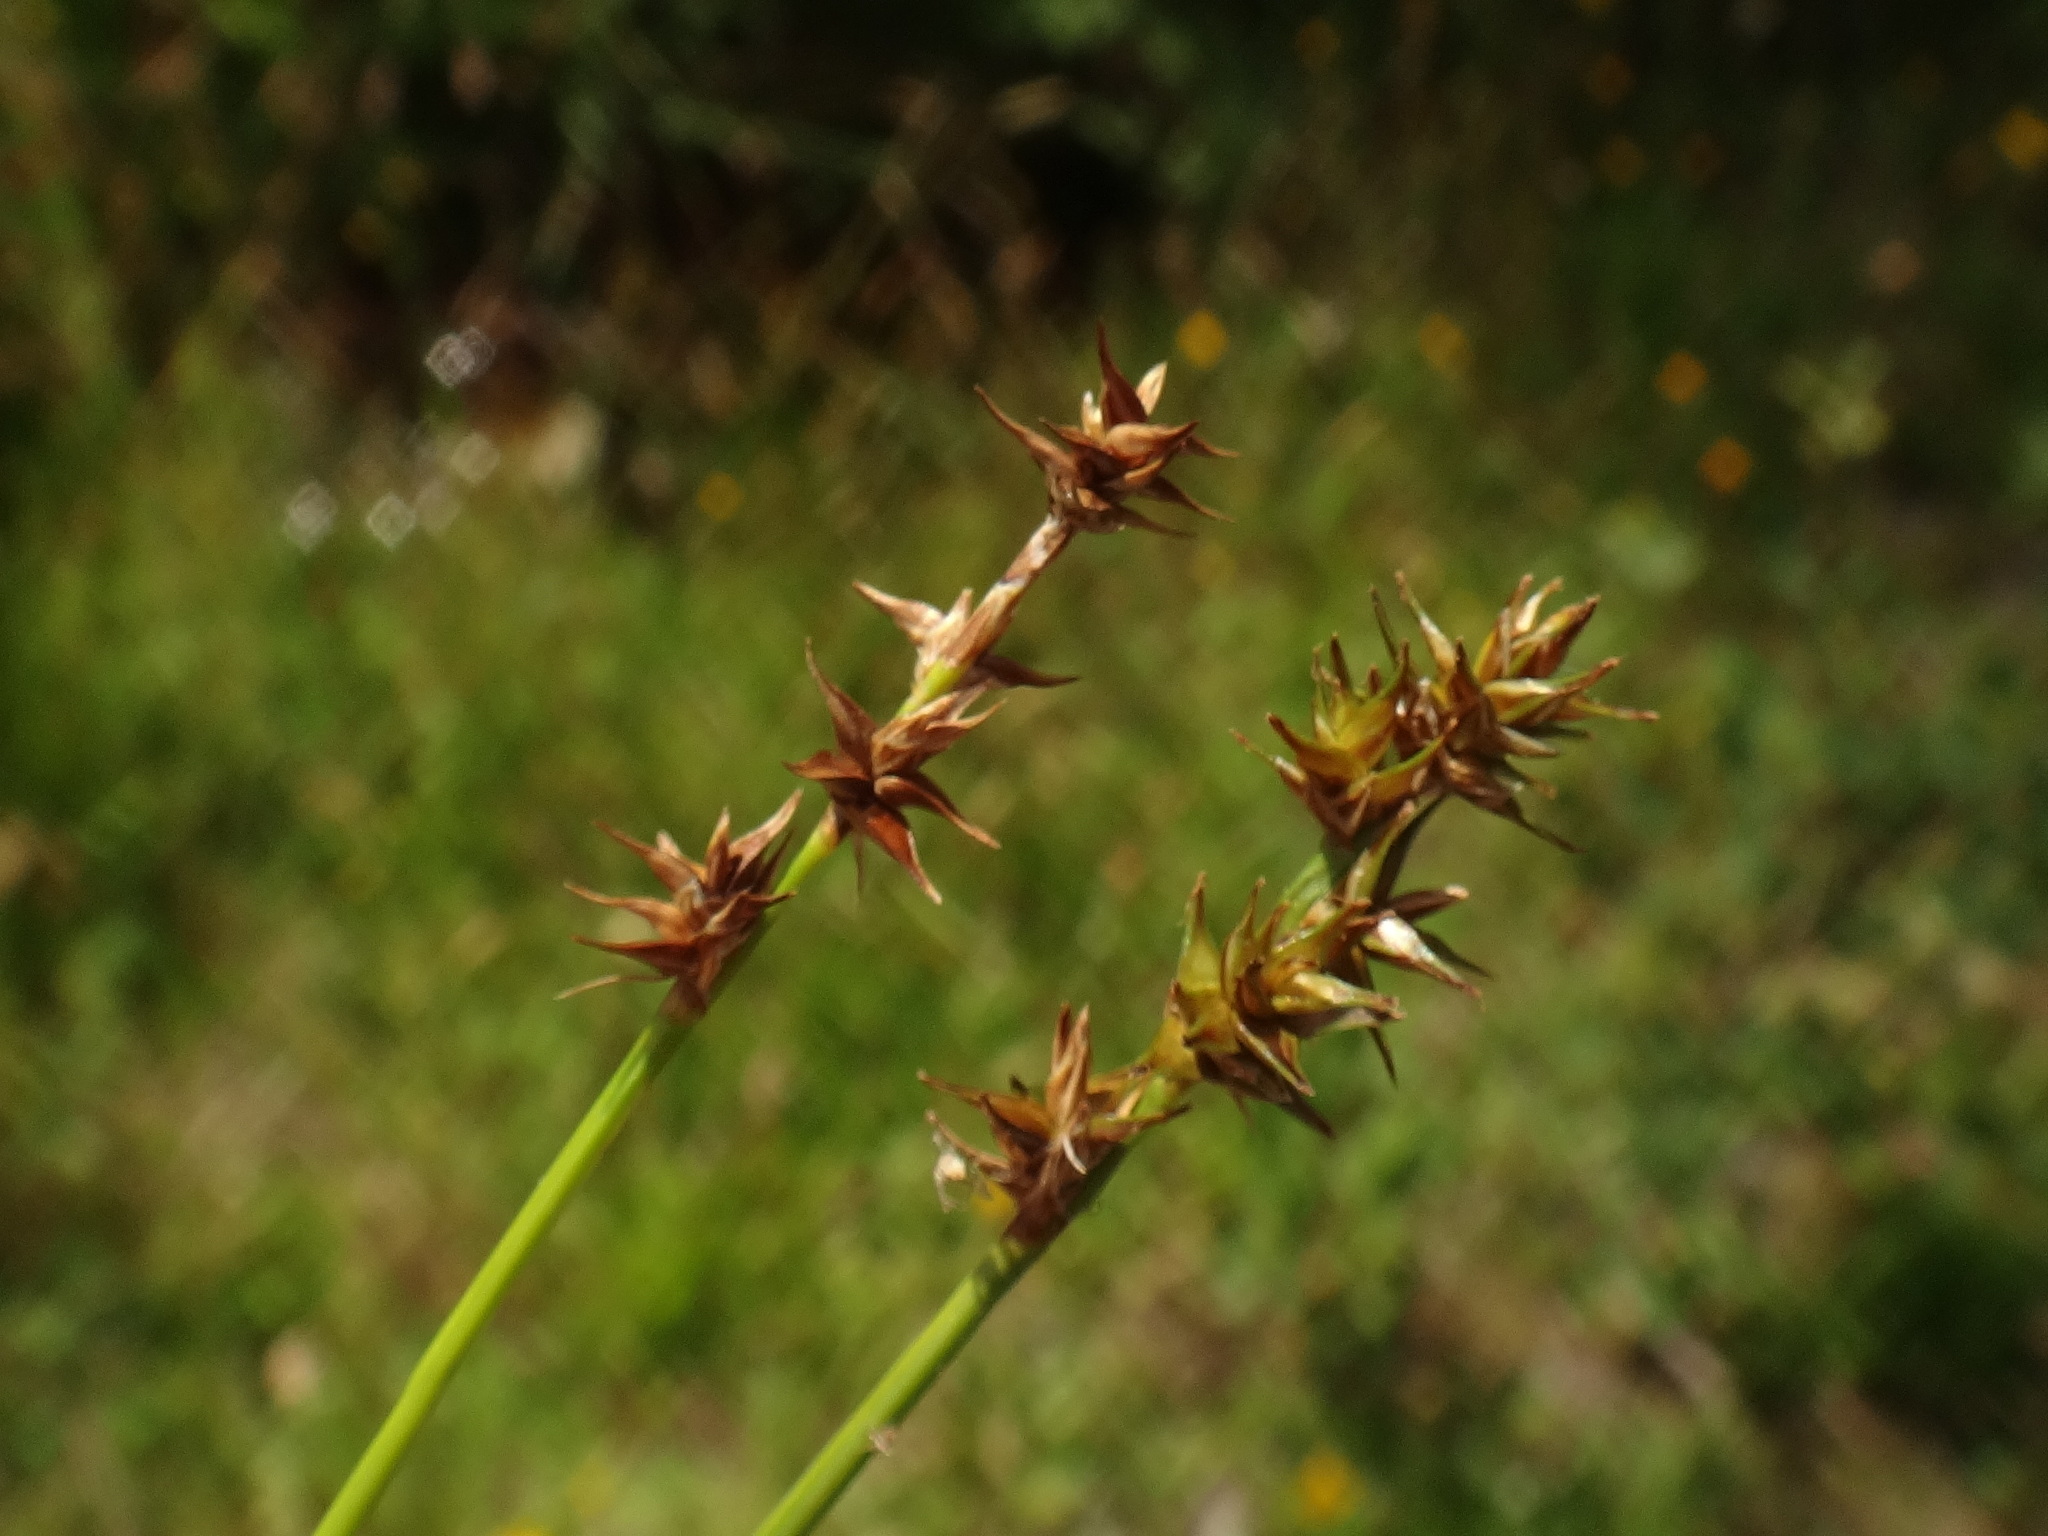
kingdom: Plantae
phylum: Tracheophyta
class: Liliopsida
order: Poales
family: Cyperaceae
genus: Carex
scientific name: Carex echinata
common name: Star sedge
